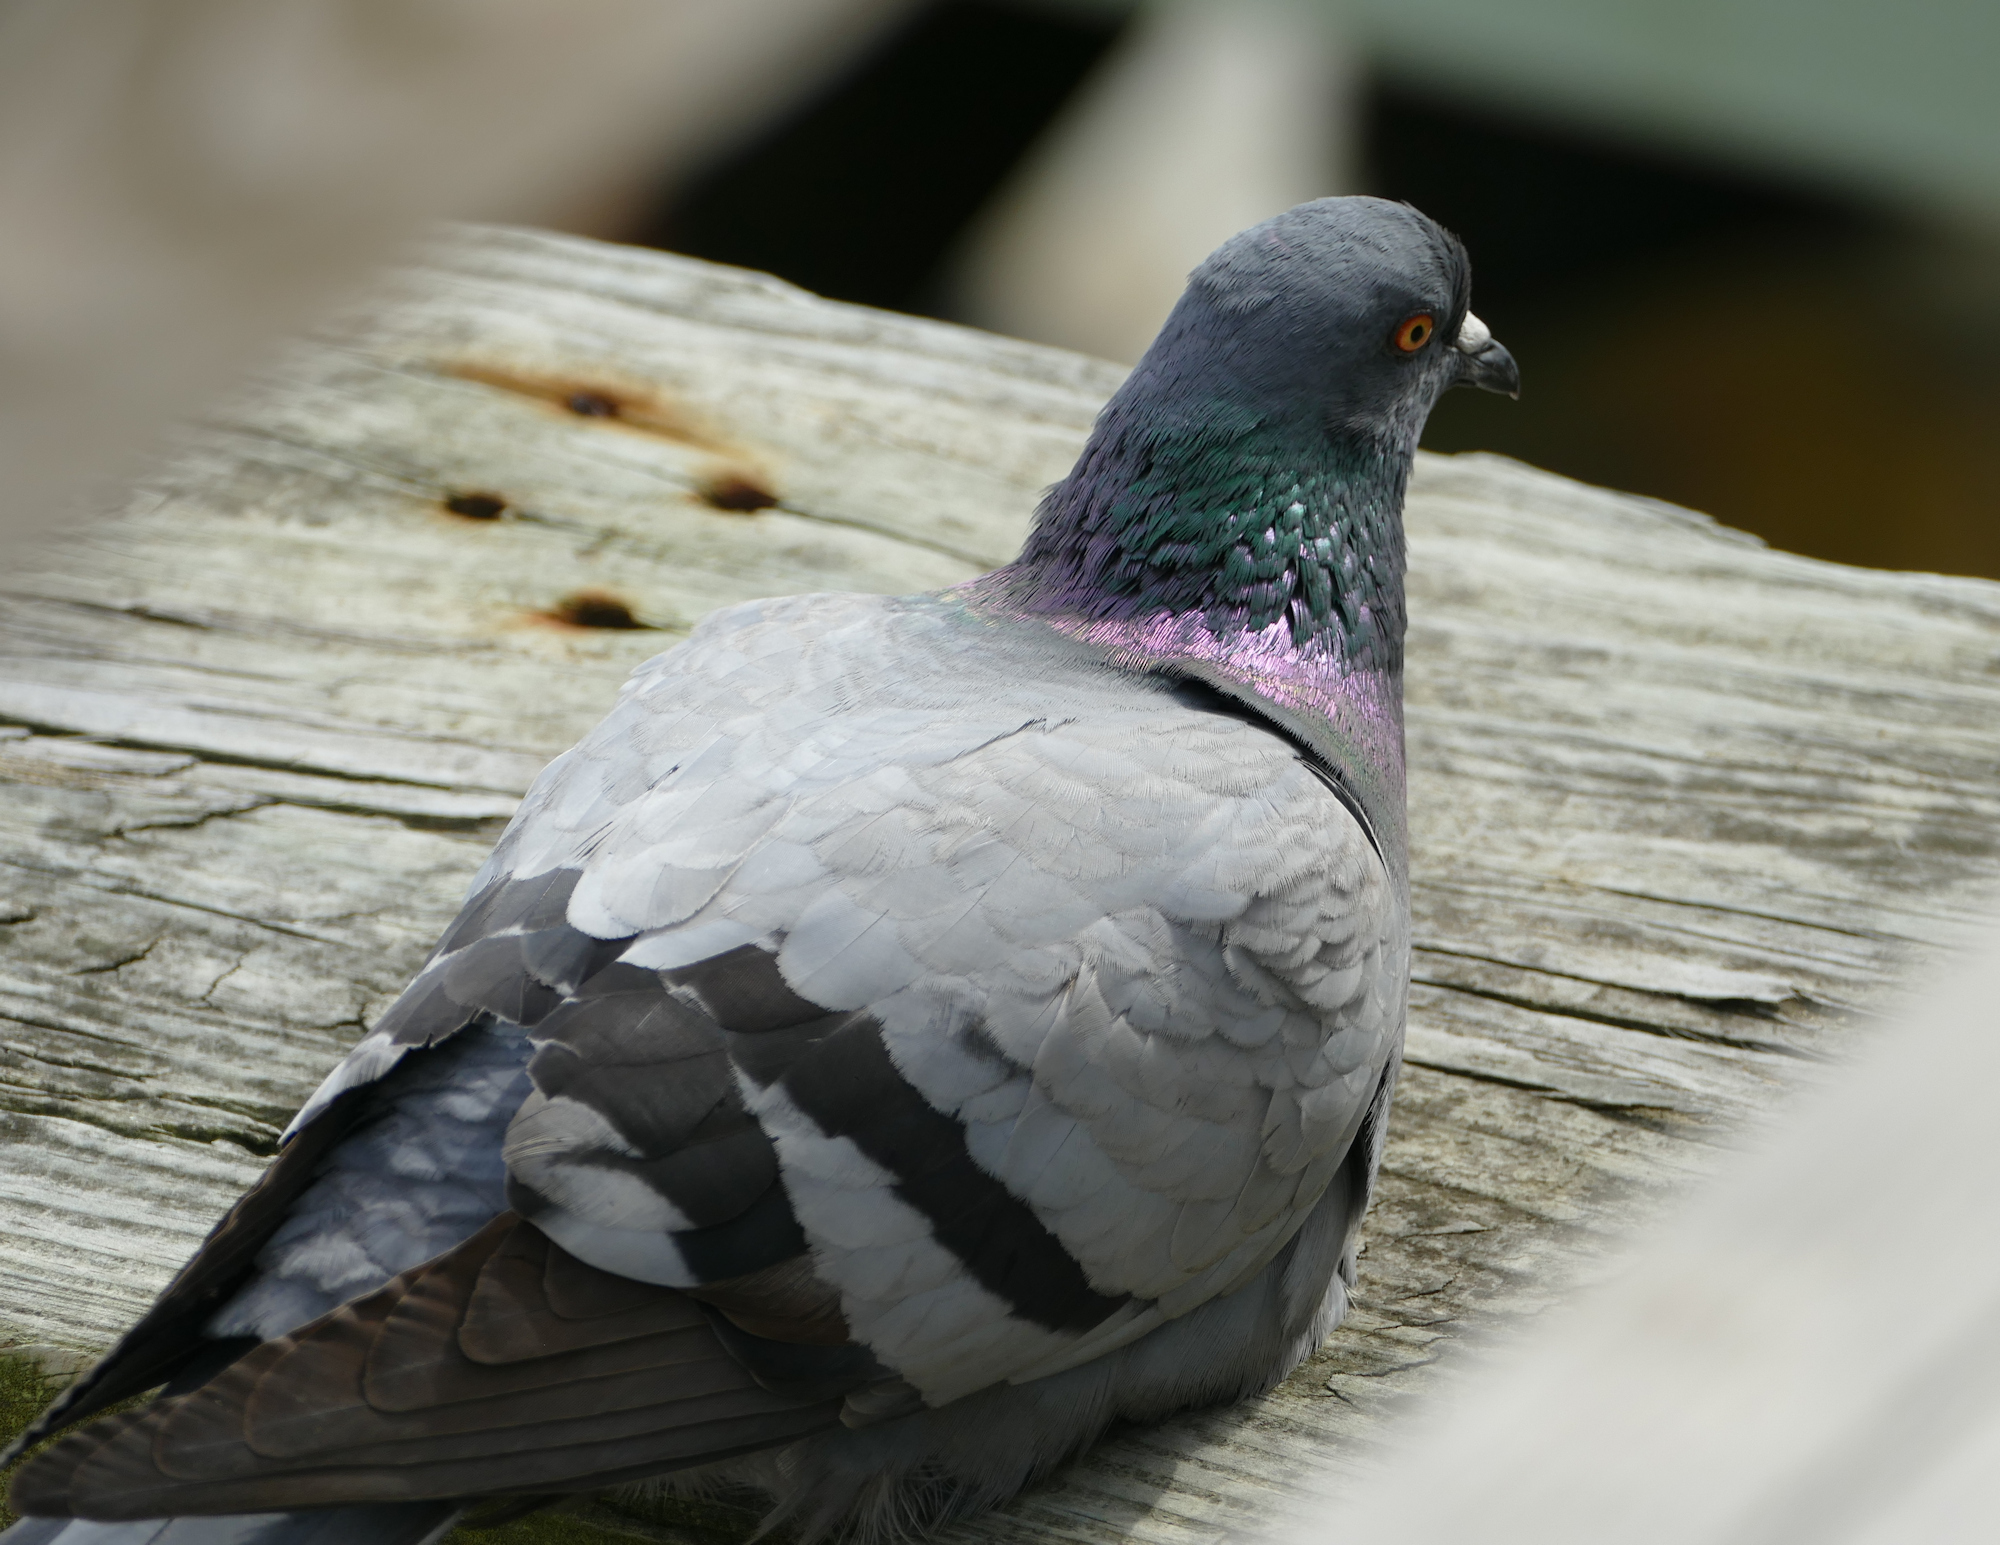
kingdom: Animalia
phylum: Chordata
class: Aves
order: Columbiformes
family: Columbidae
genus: Columba
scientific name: Columba livia
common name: Rock pigeon
